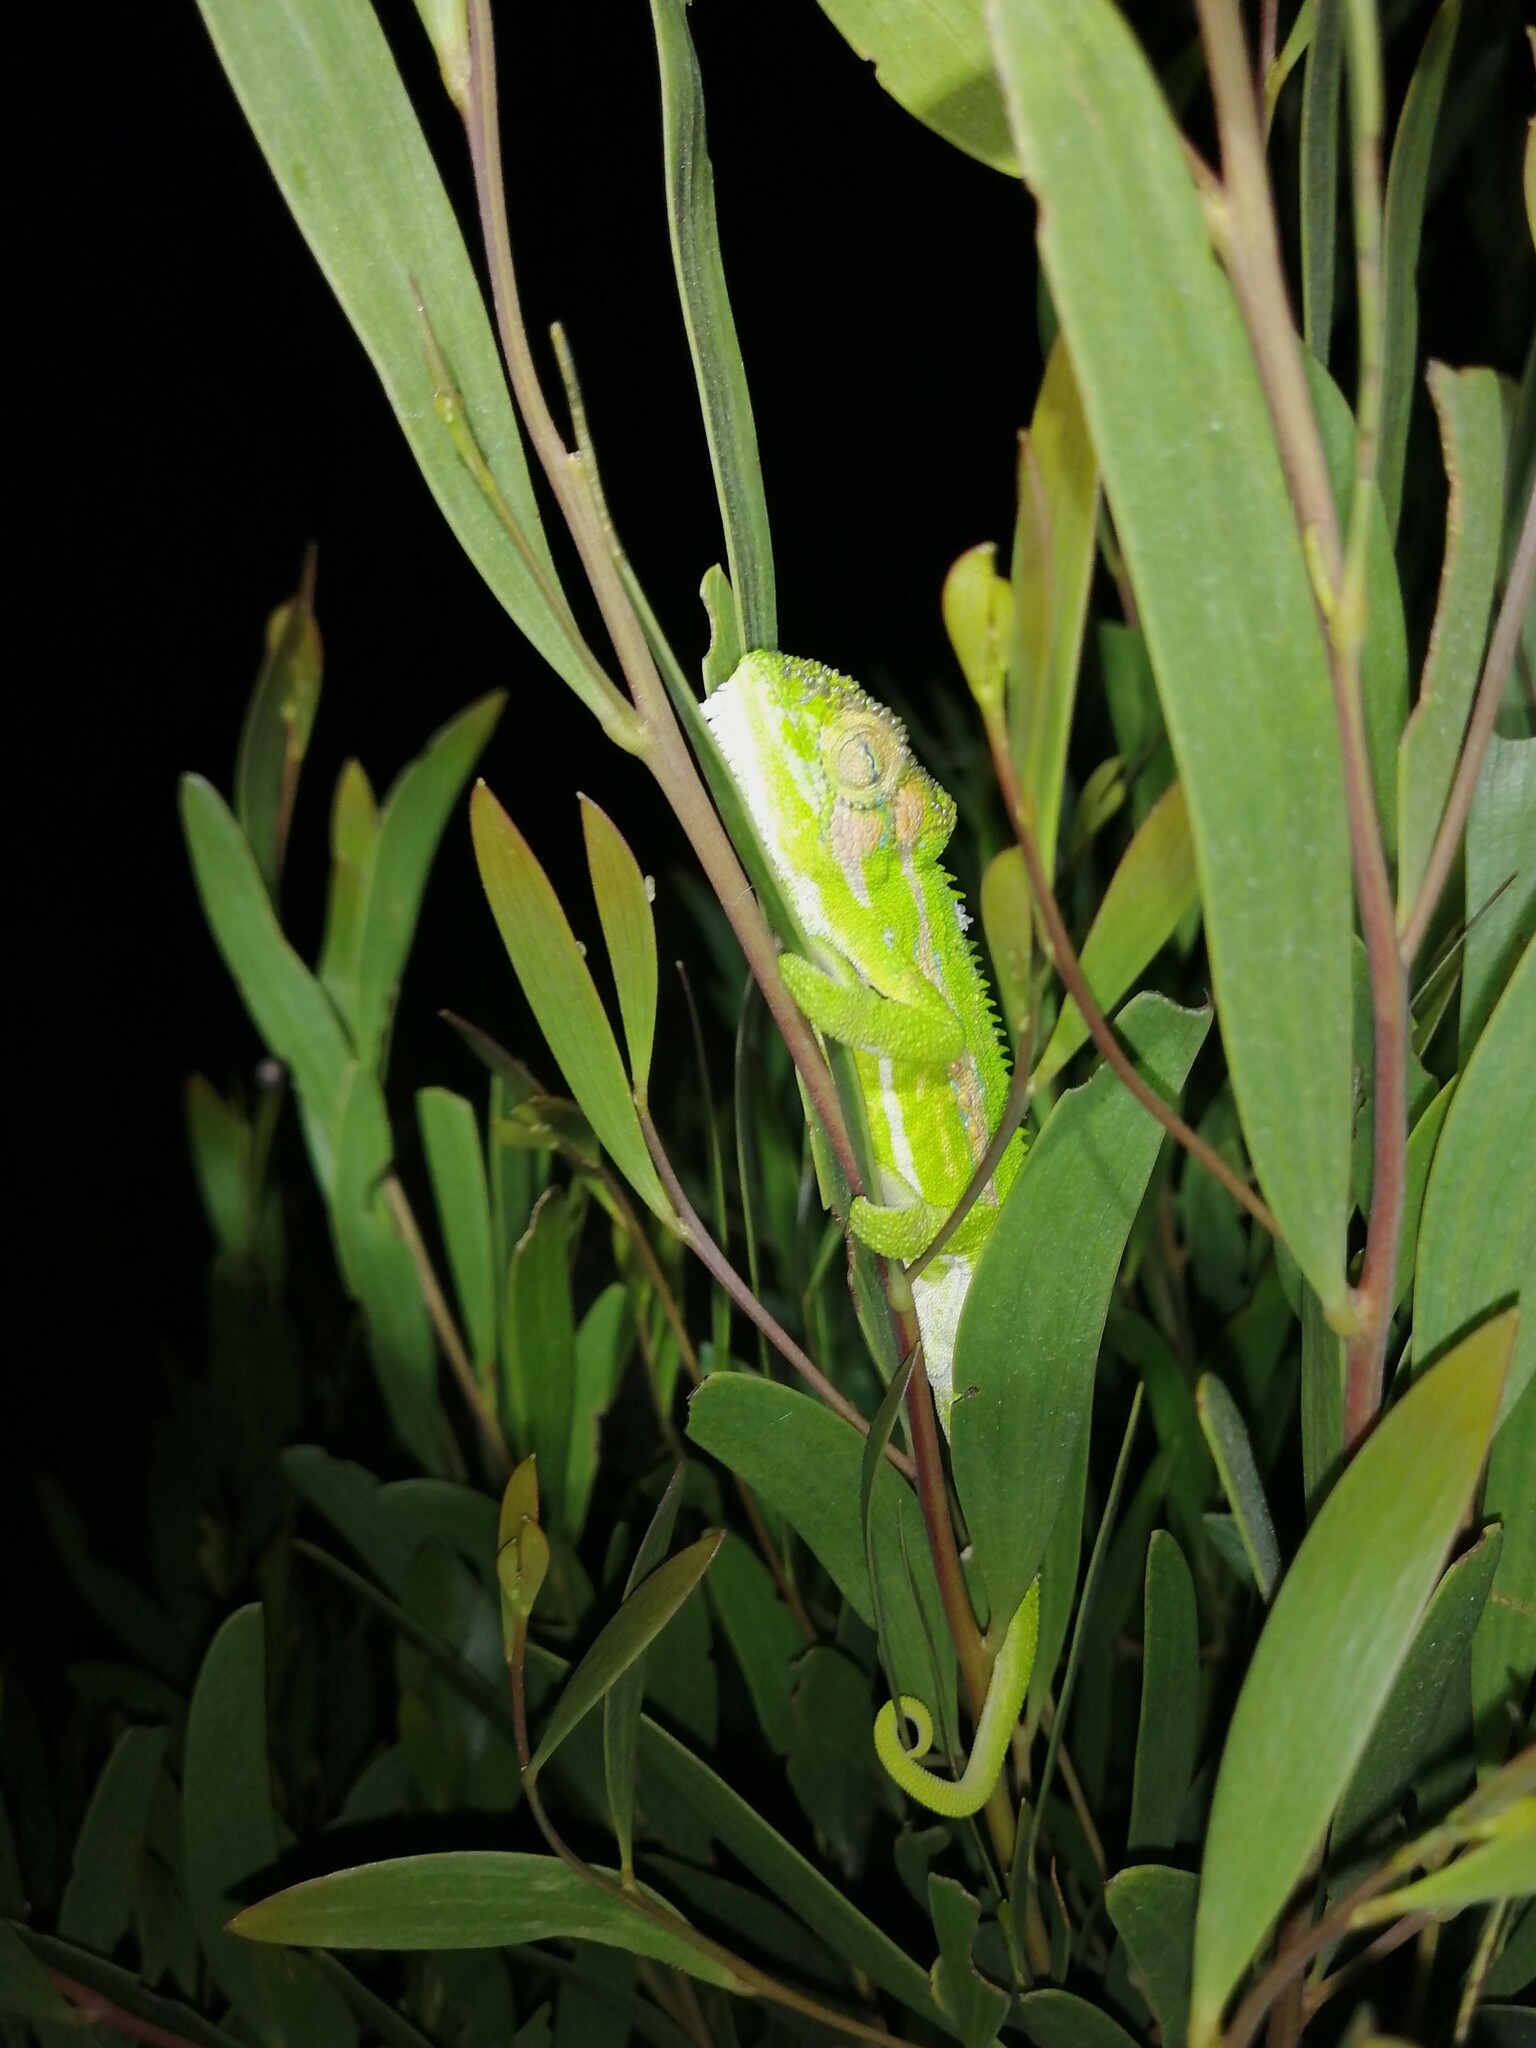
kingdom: Animalia
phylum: Chordata
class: Squamata
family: Chamaeleonidae
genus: Bradypodion
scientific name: Bradypodion pumilum
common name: Cape dwarf chameleon
